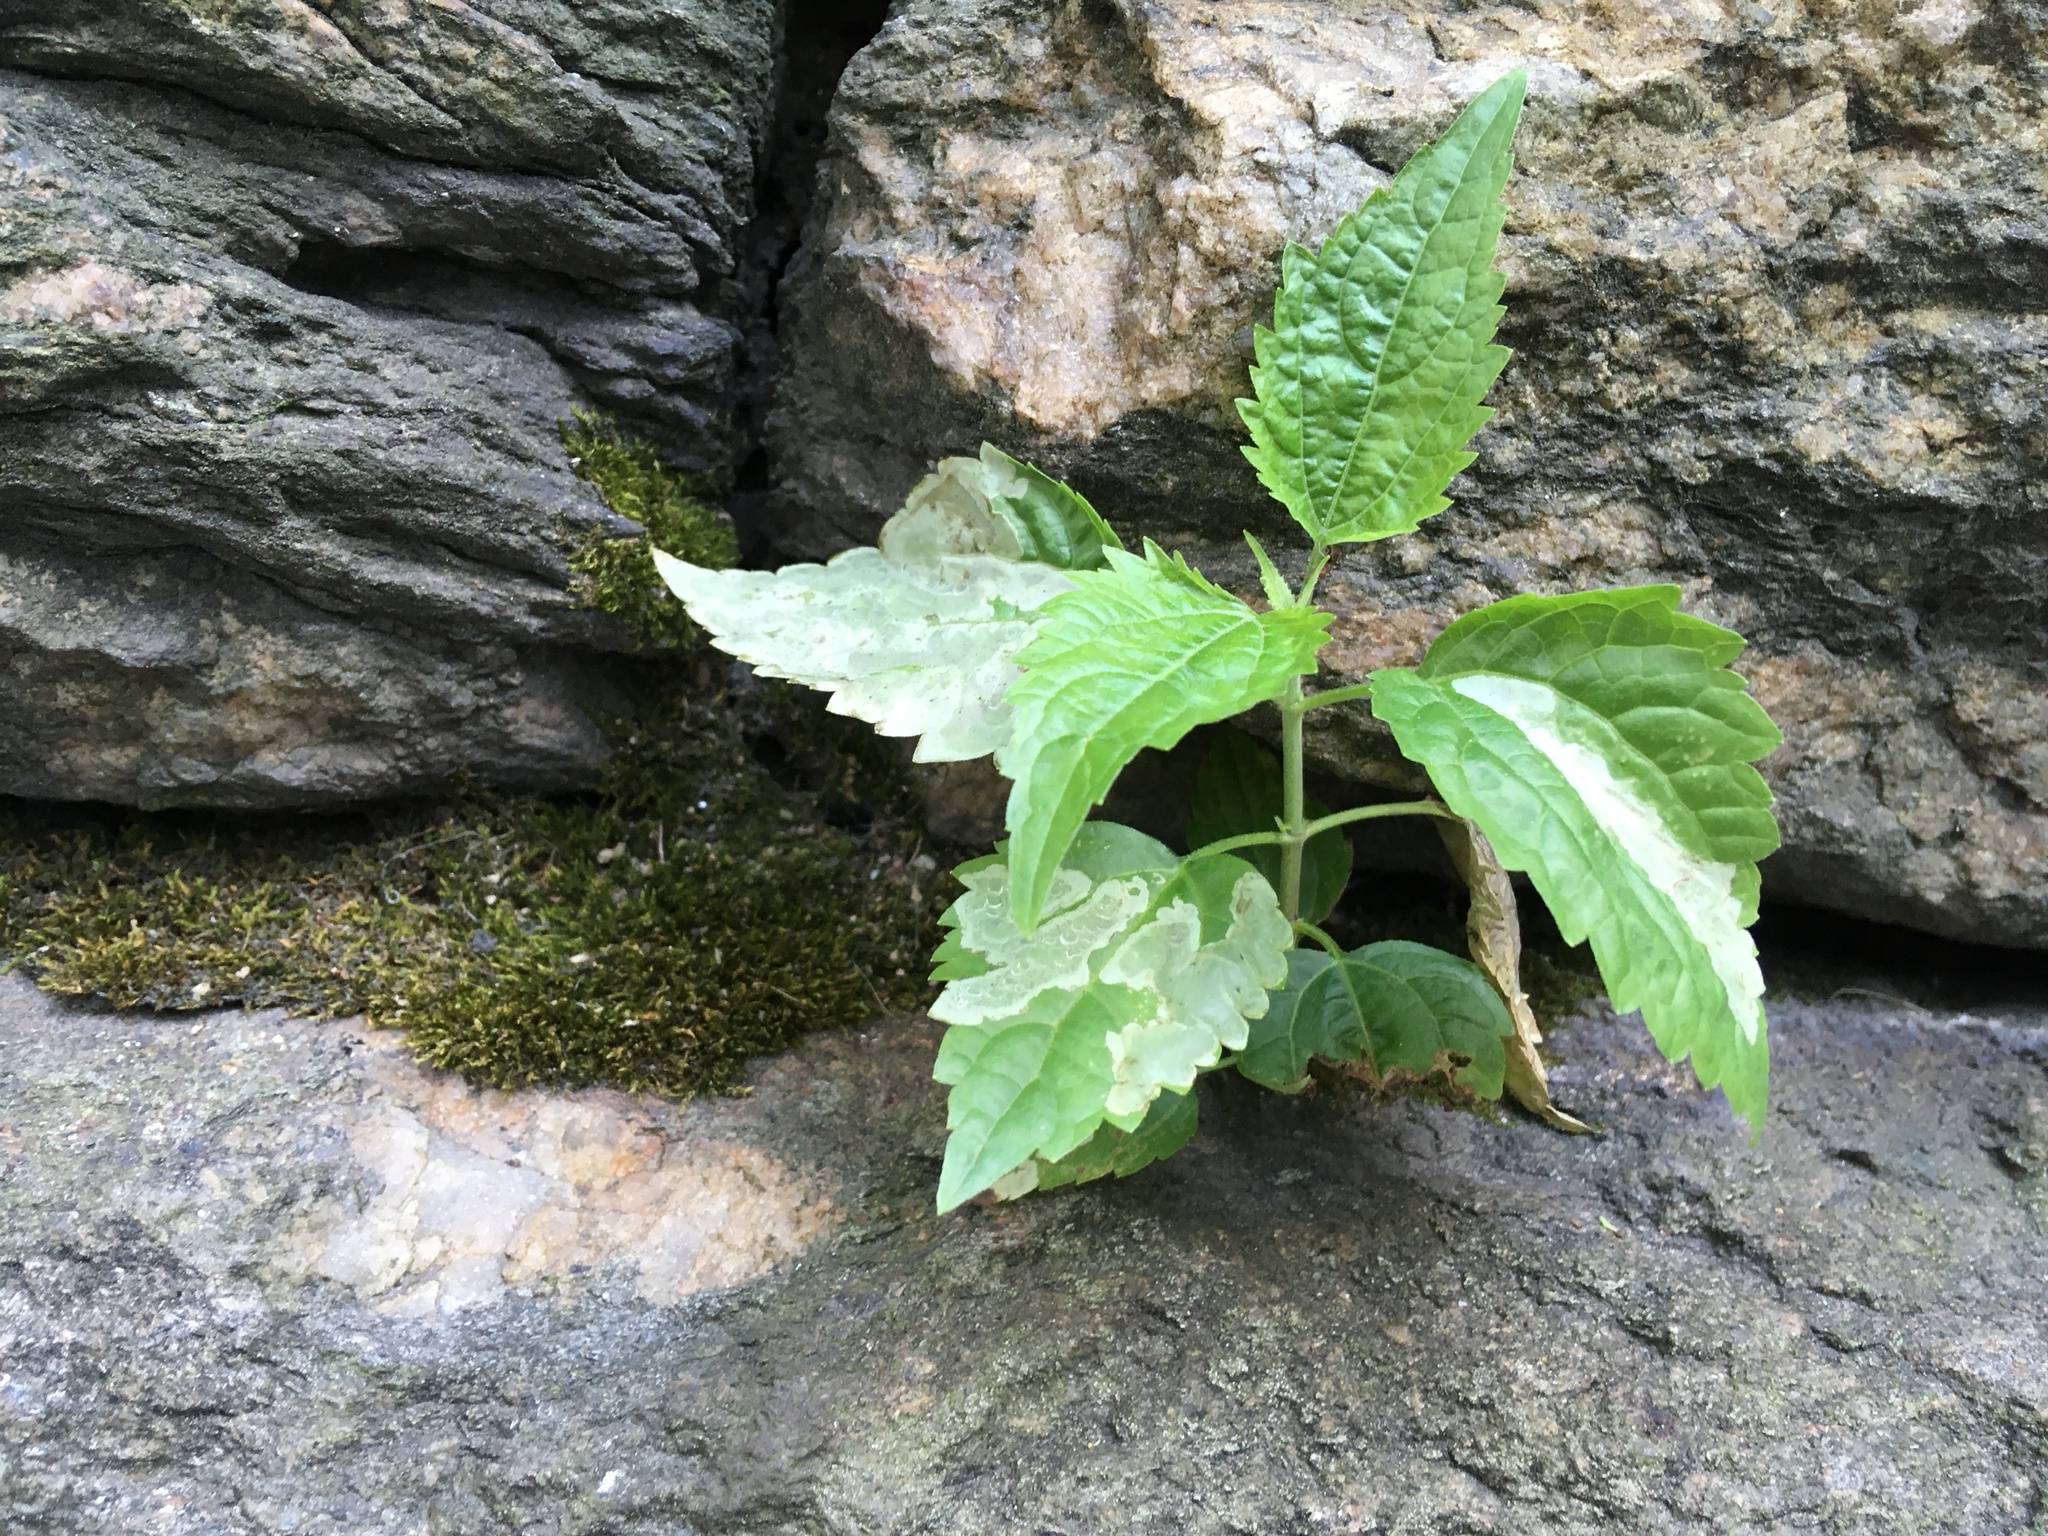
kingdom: Plantae
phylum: Tracheophyta
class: Magnoliopsida
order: Asterales
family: Asteraceae
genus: Ageratina
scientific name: Ageratina altissima
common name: White snakeroot
